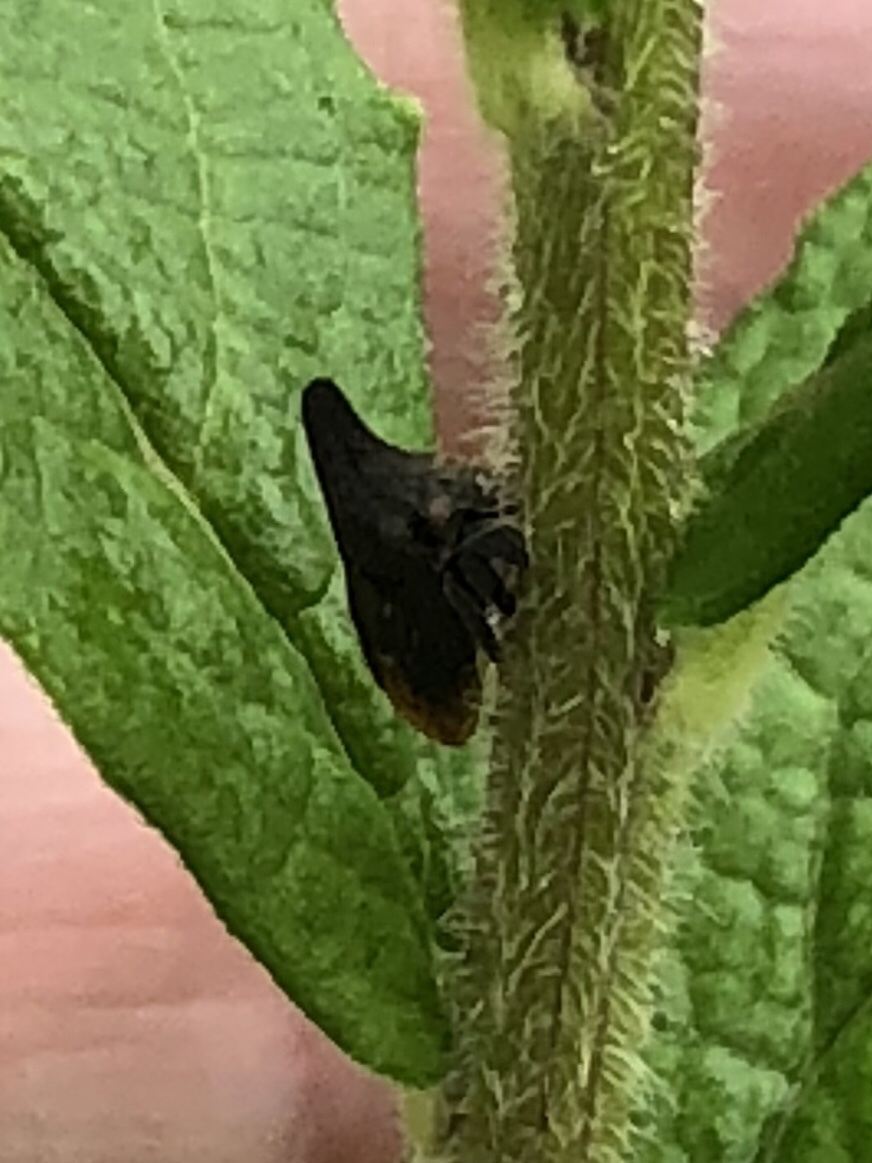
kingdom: Animalia
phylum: Arthropoda
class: Insecta
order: Hemiptera
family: Membracidae
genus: Enchenopa
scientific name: Enchenopa latipes
